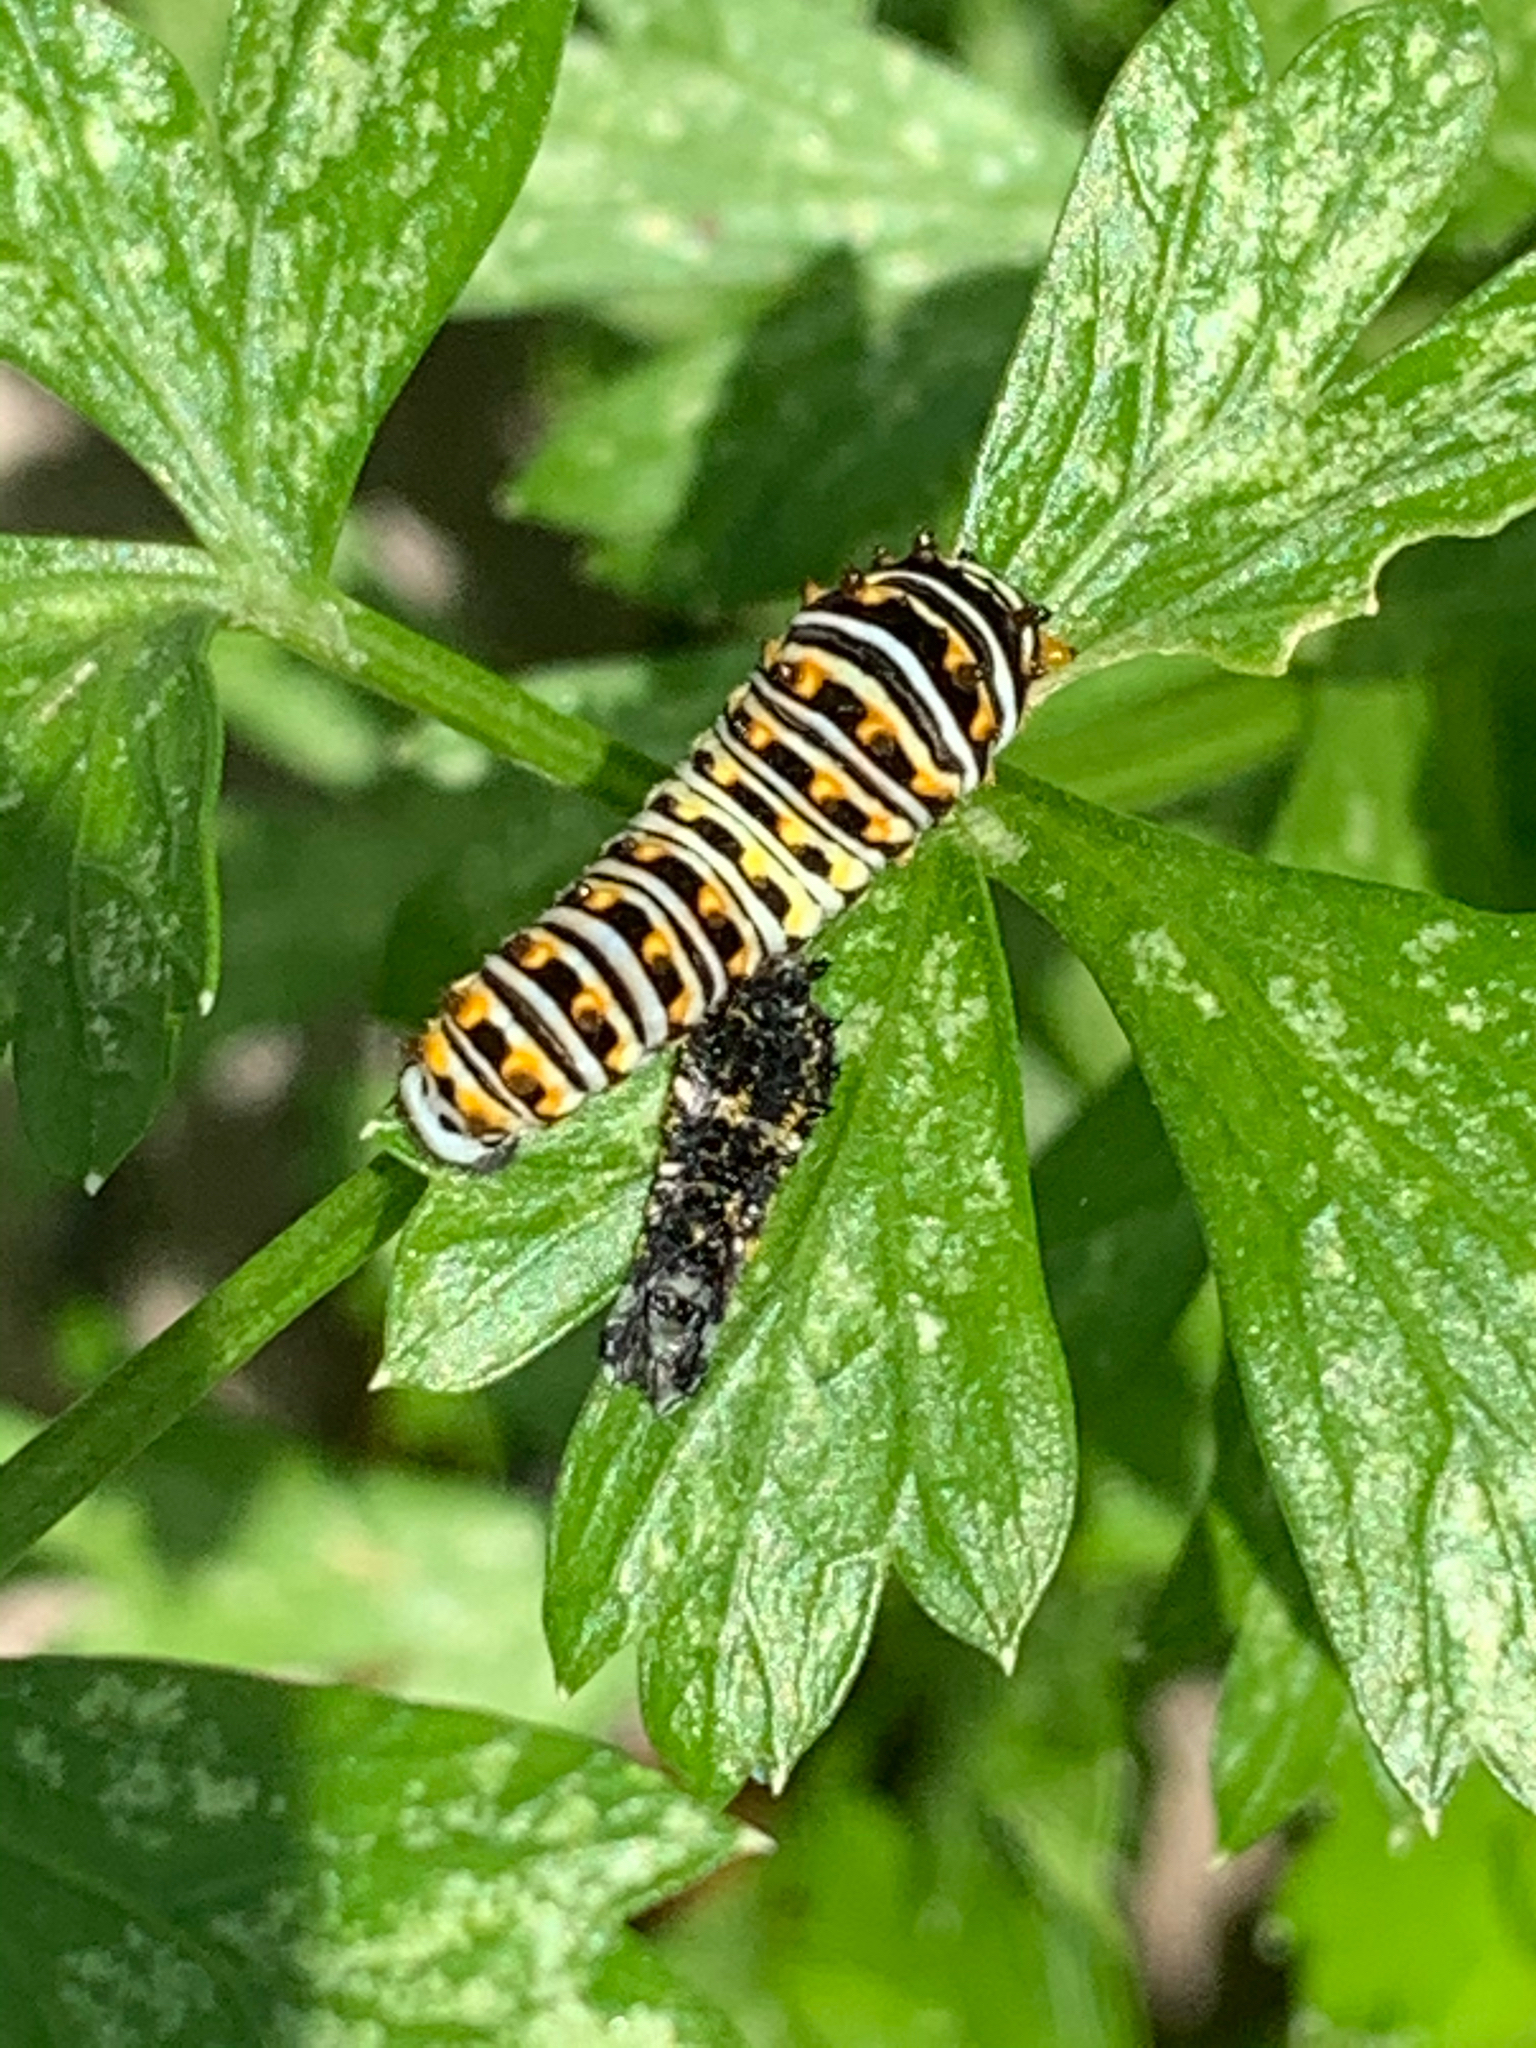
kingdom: Animalia
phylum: Arthropoda
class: Insecta
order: Lepidoptera
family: Papilionidae
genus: Papilio
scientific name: Papilio polyxenes
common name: Black swallowtail
